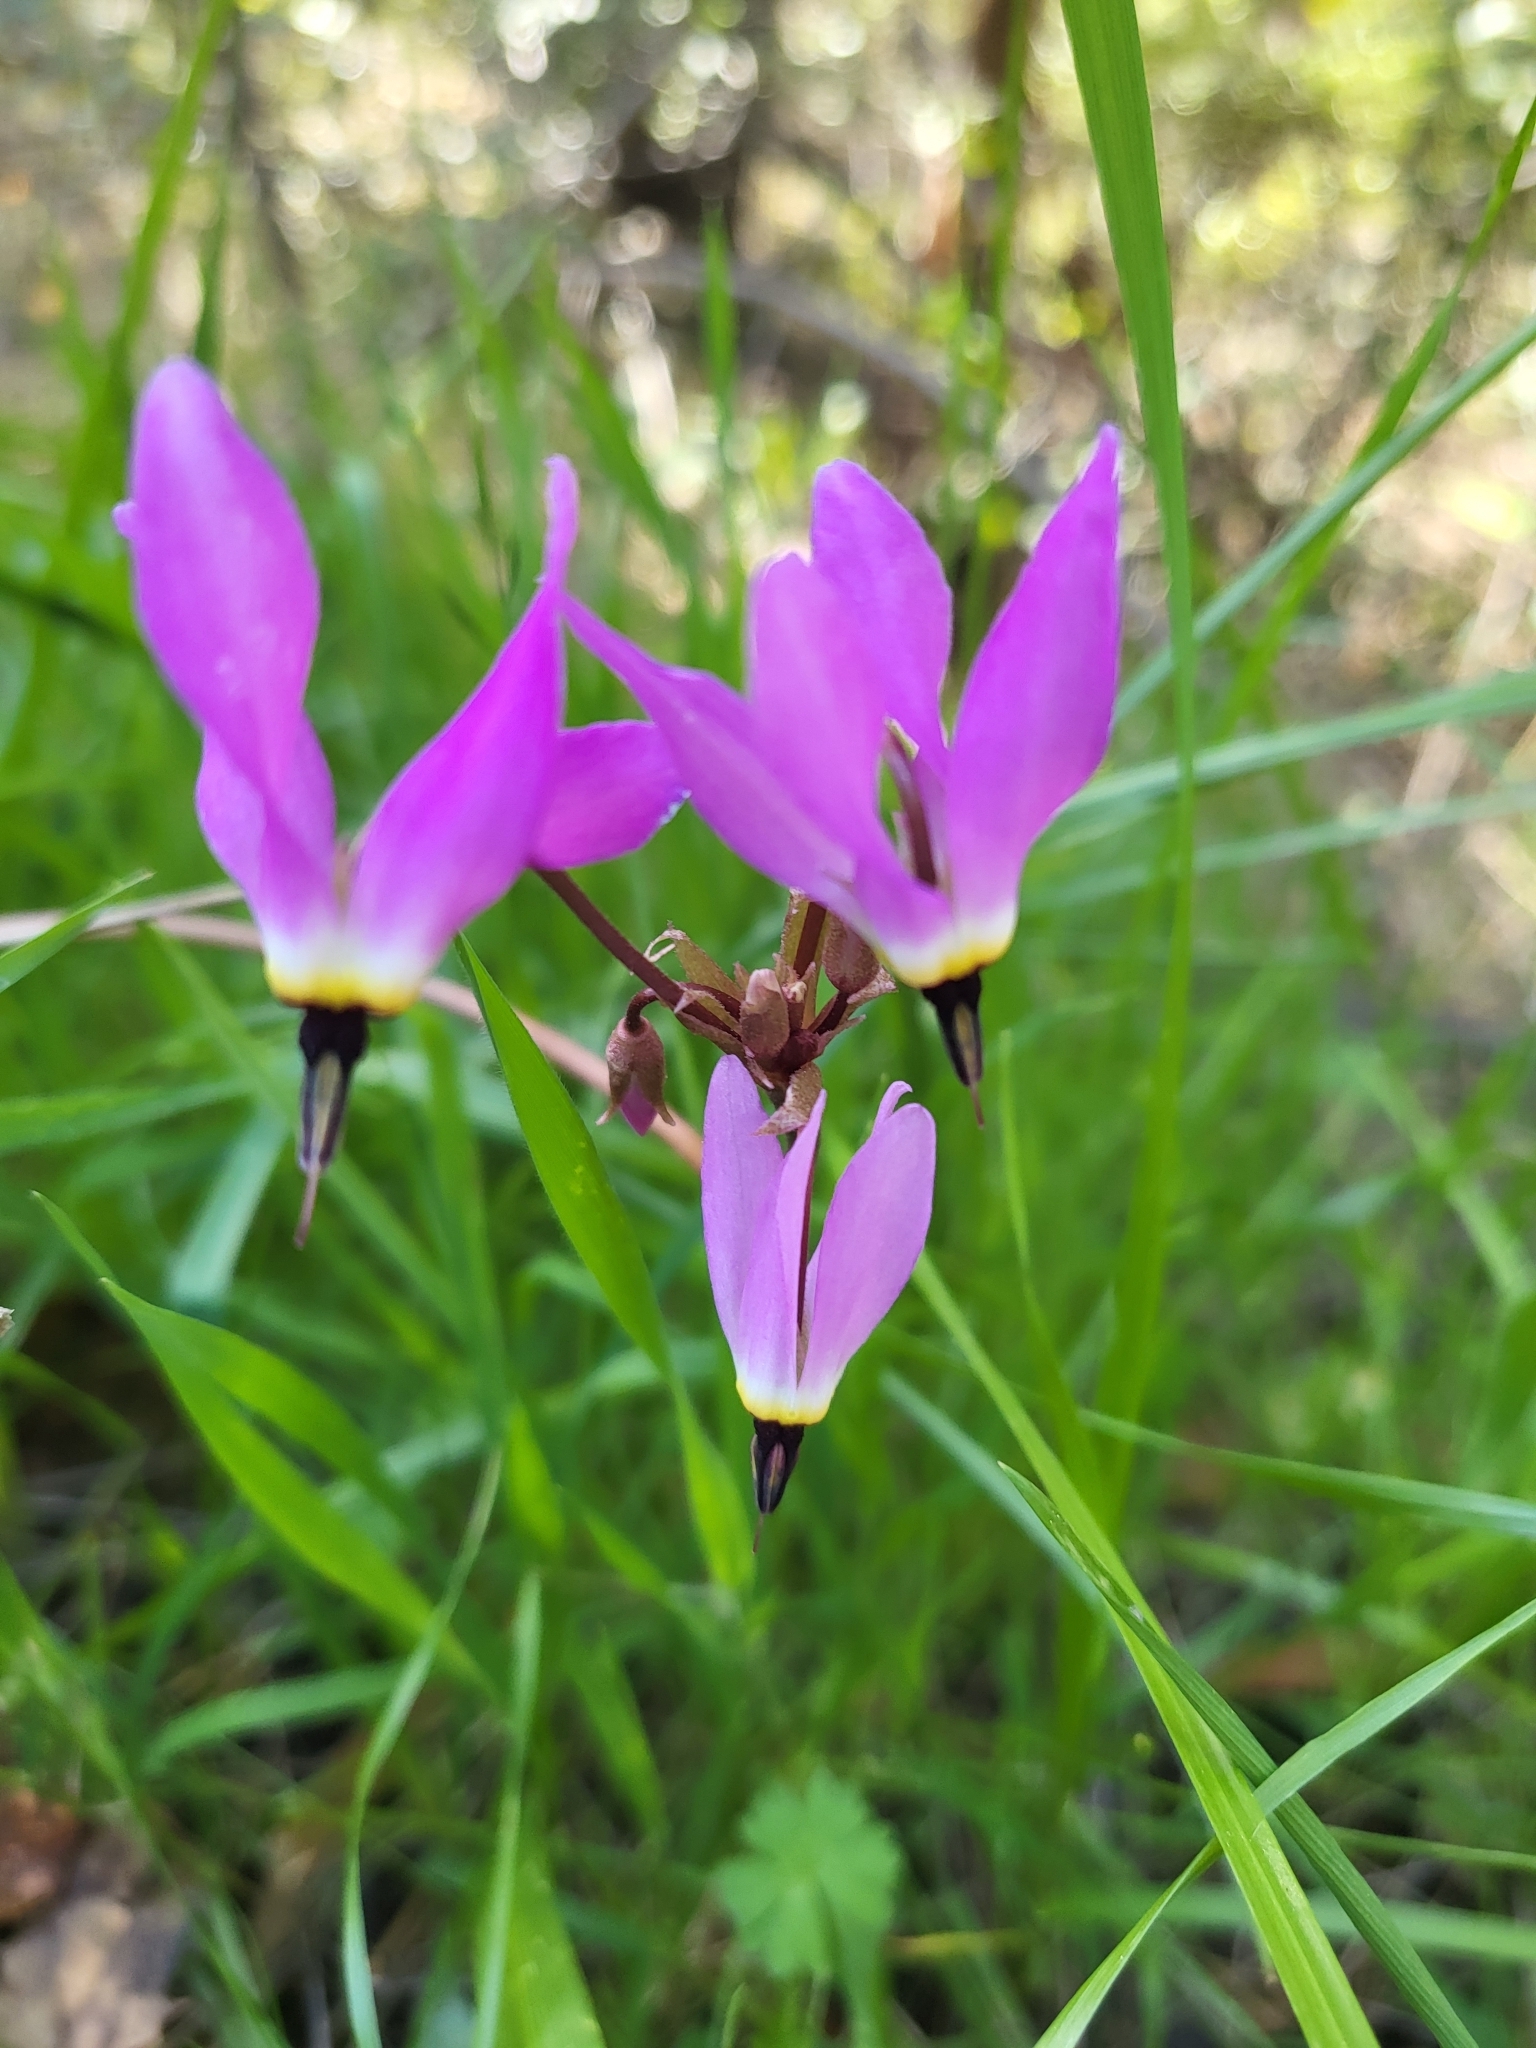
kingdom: Plantae
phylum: Tracheophyta
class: Magnoliopsida
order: Ericales
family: Primulaceae
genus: Dodecatheon
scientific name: Dodecatheon hendersonii
